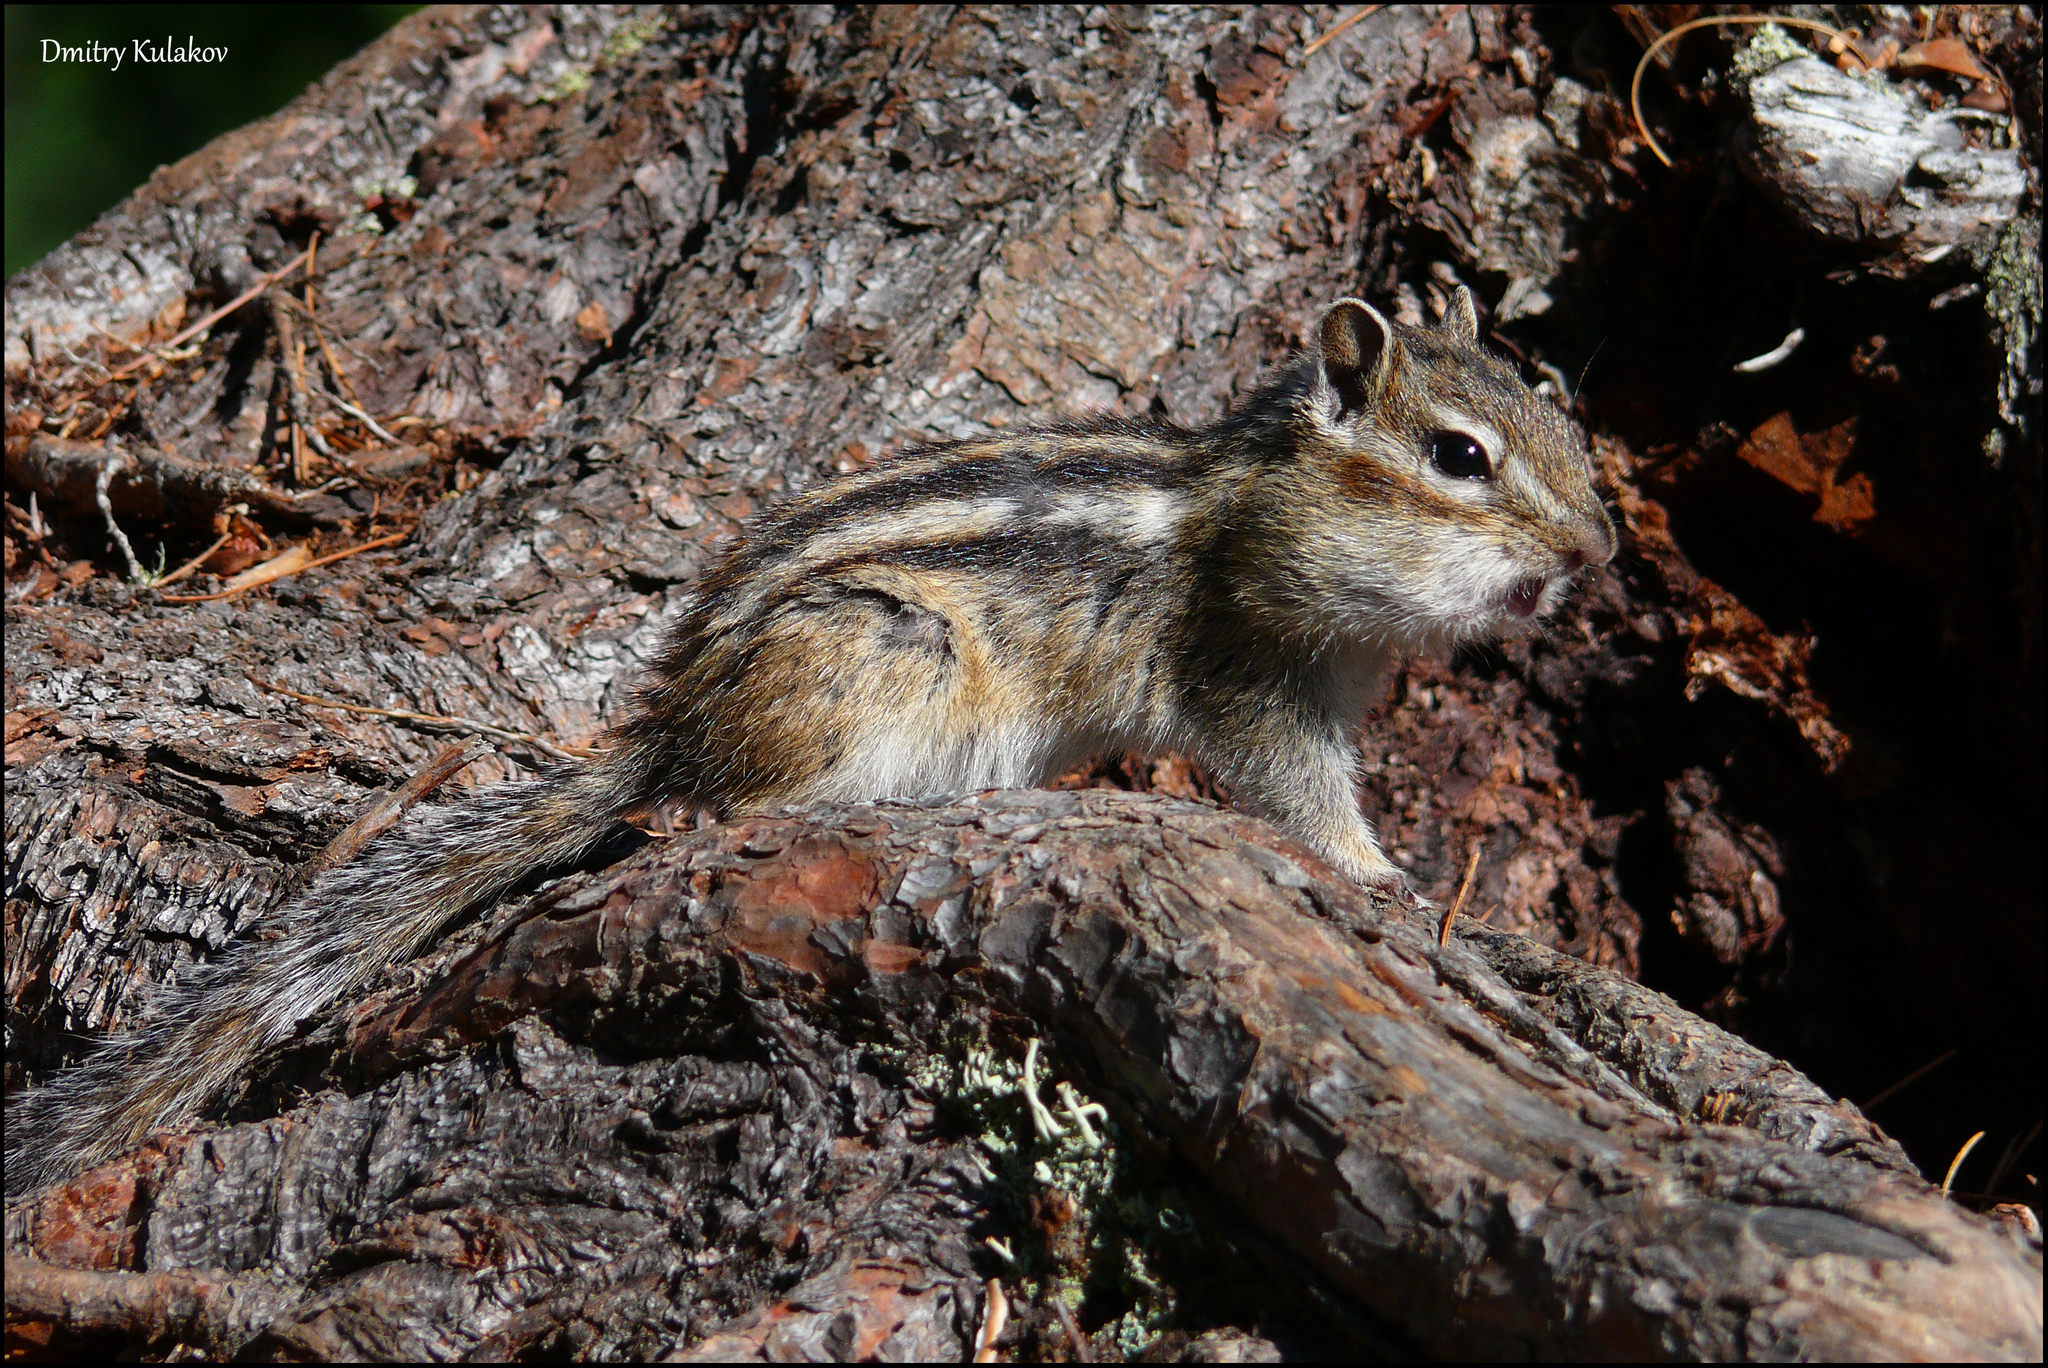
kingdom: Animalia
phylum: Chordata
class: Mammalia
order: Rodentia
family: Sciuridae
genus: Tamias
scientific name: Tamias sibiricus
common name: Siberian chipmunk
